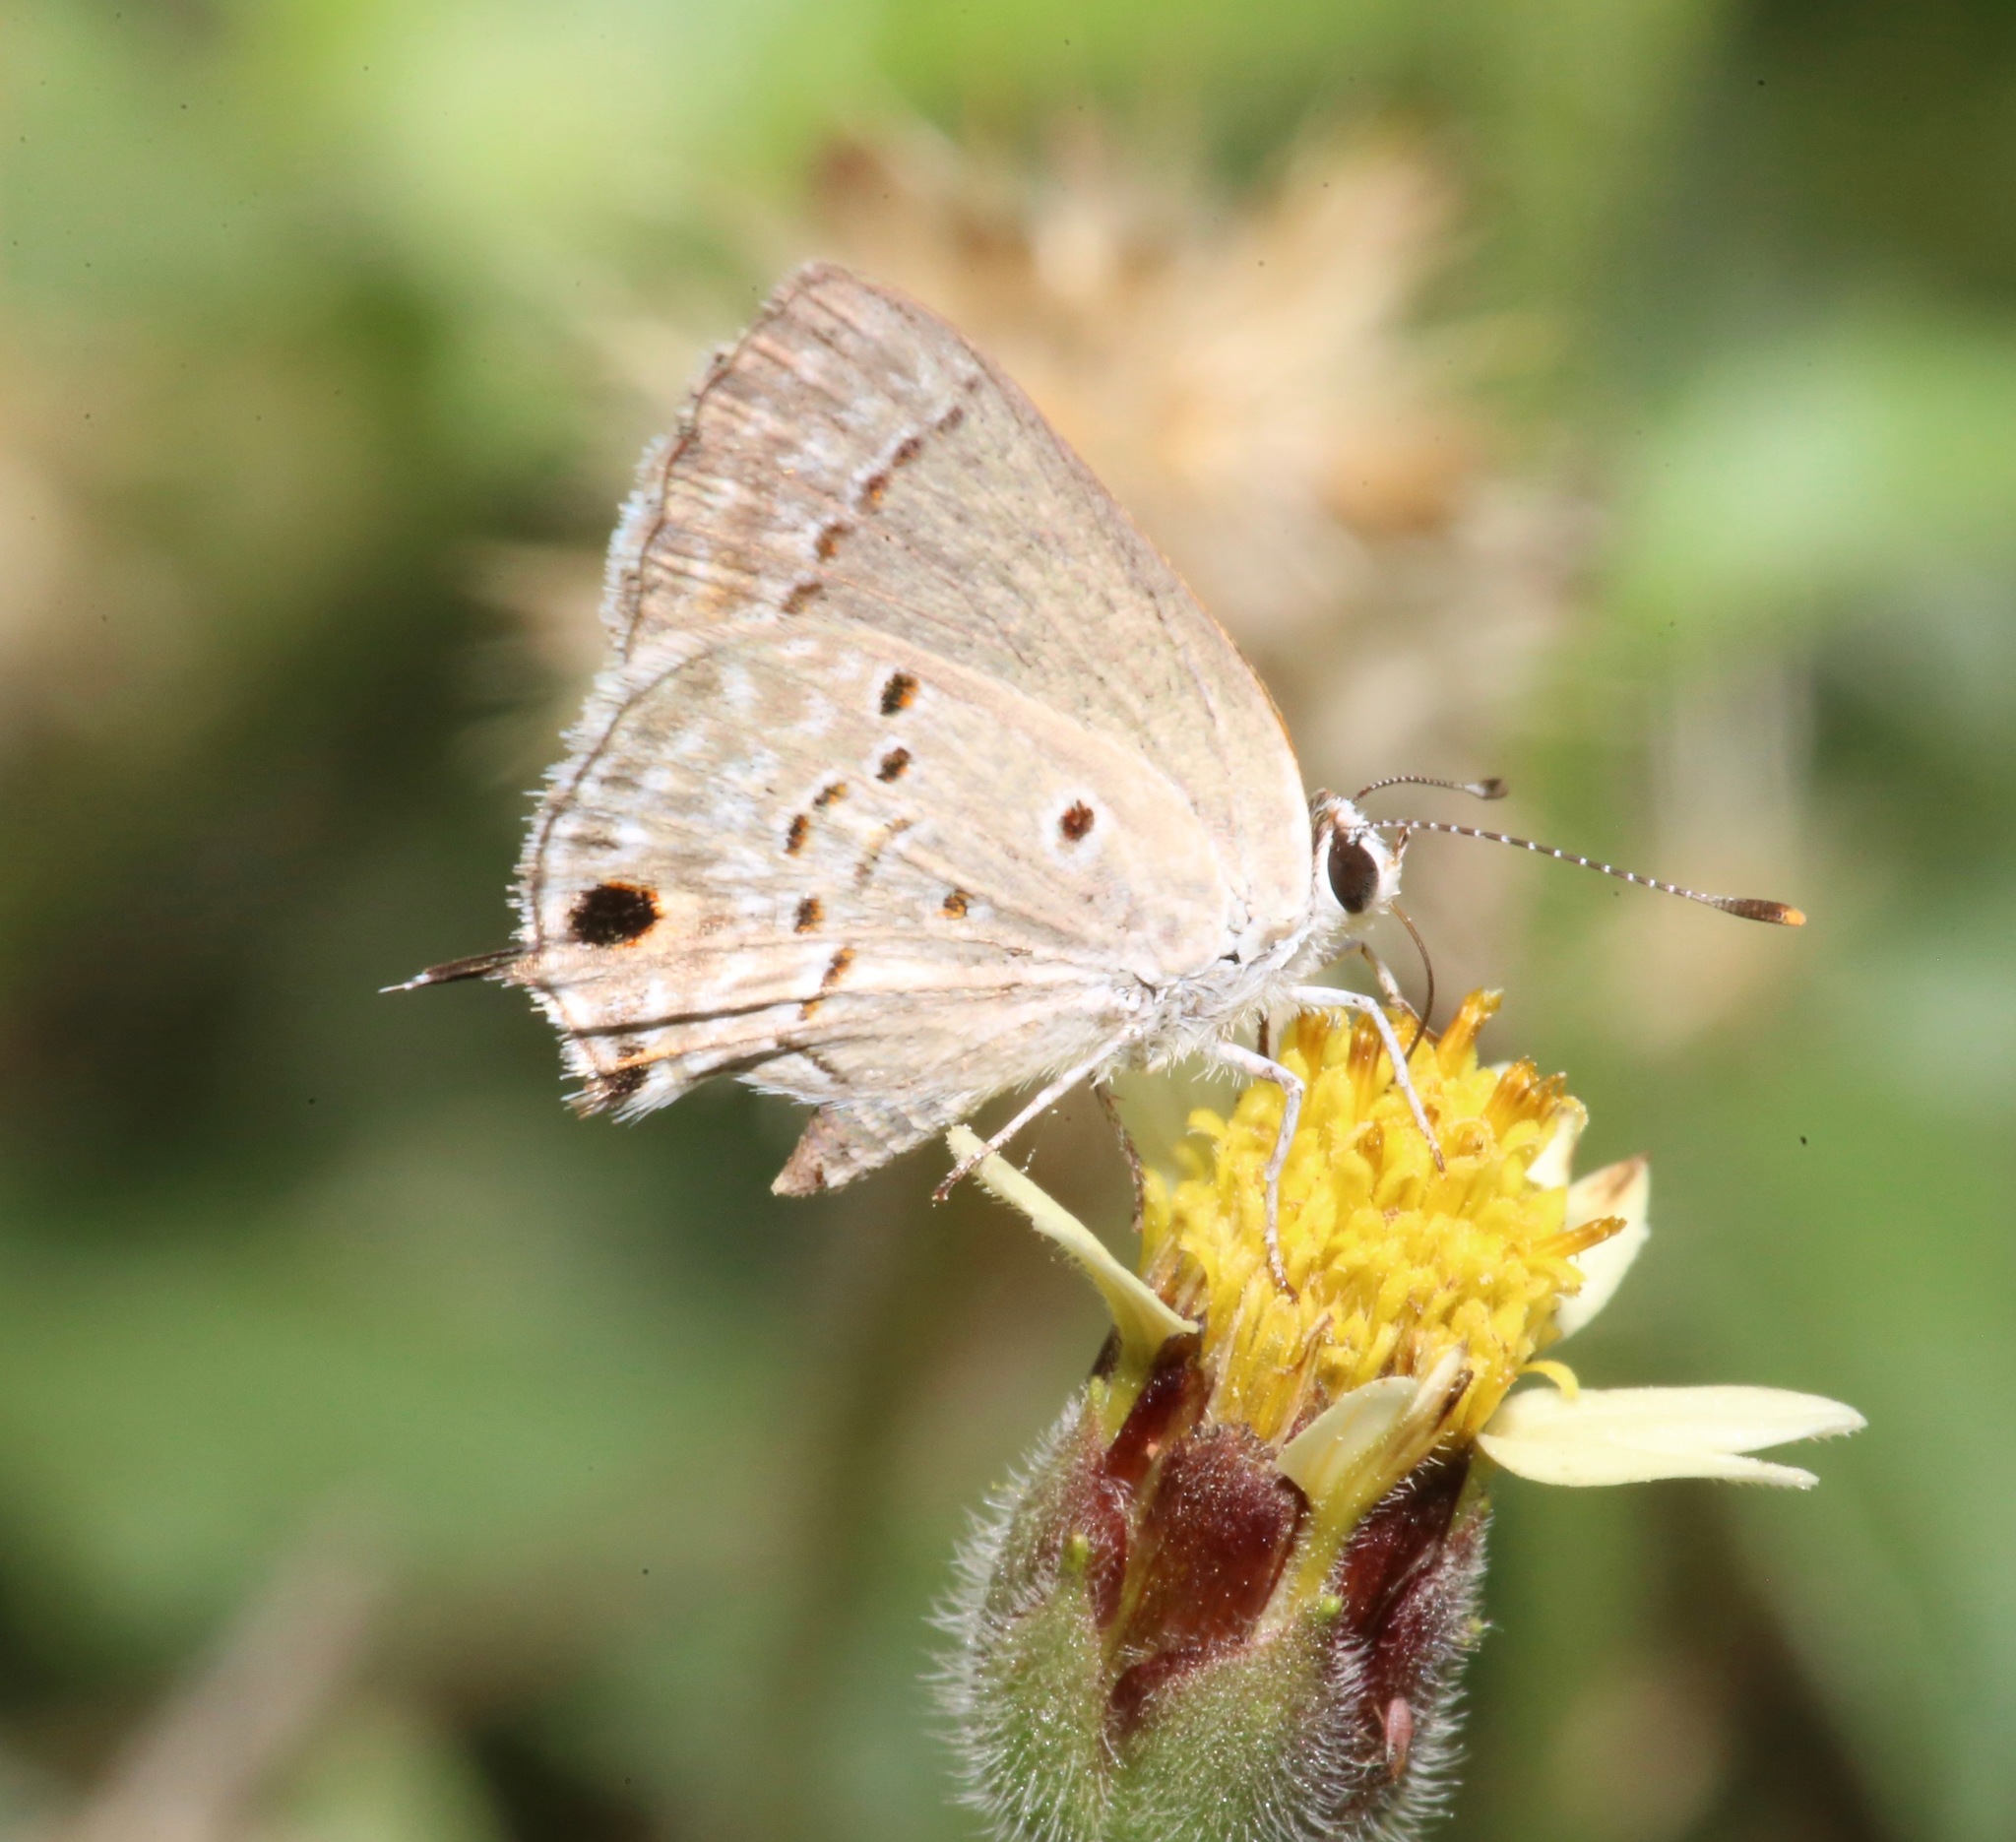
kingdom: Animalia
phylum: Arthropoda
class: Insecta
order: Lepidoptera
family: Lycaenidae
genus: Callicista
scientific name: Callicista columella
